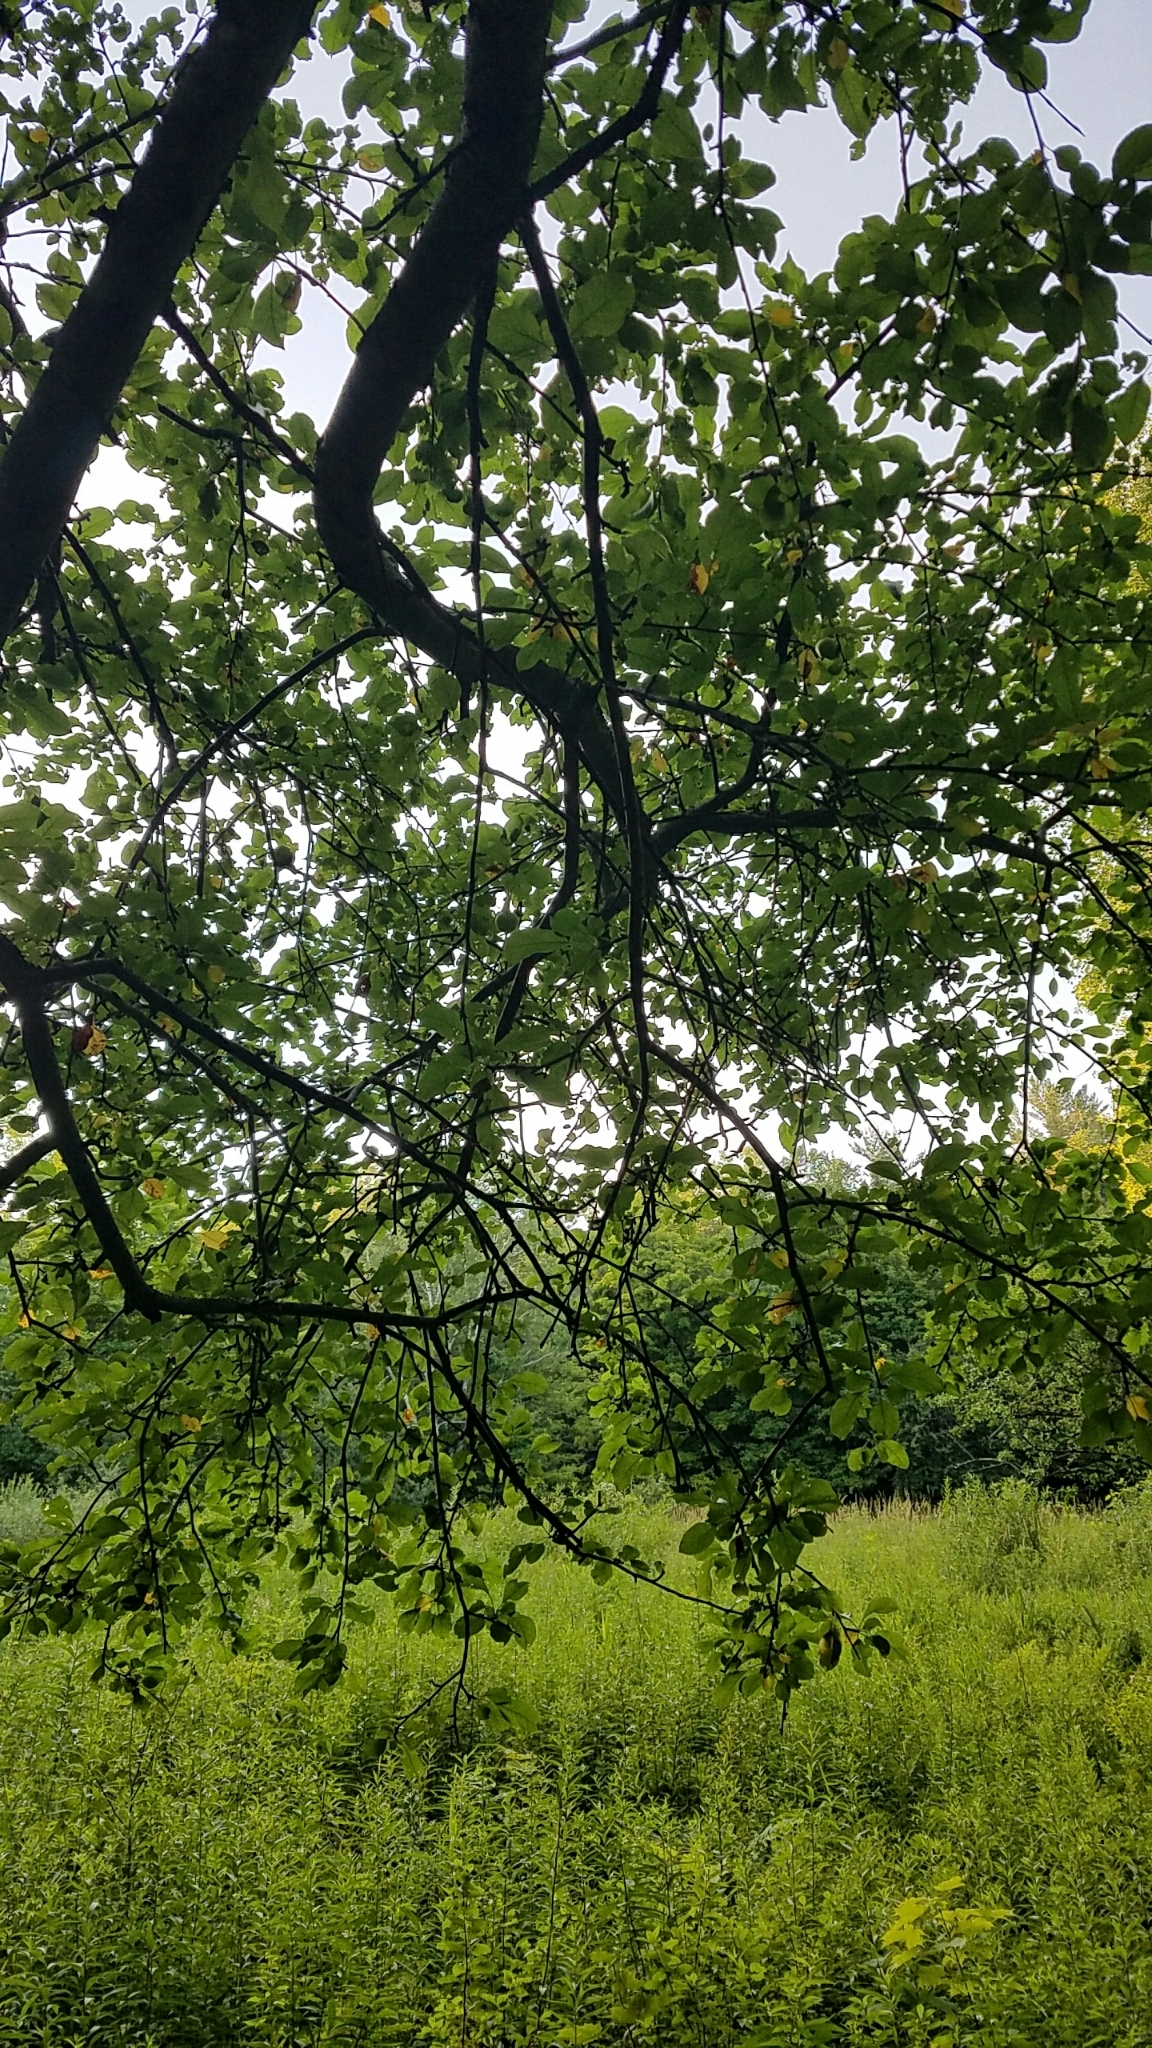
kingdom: Plantae
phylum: Tracheophyta
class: Magnoliopsida
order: Rosales
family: Rosaceae
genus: Malus
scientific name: Malus domestica
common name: Apple
